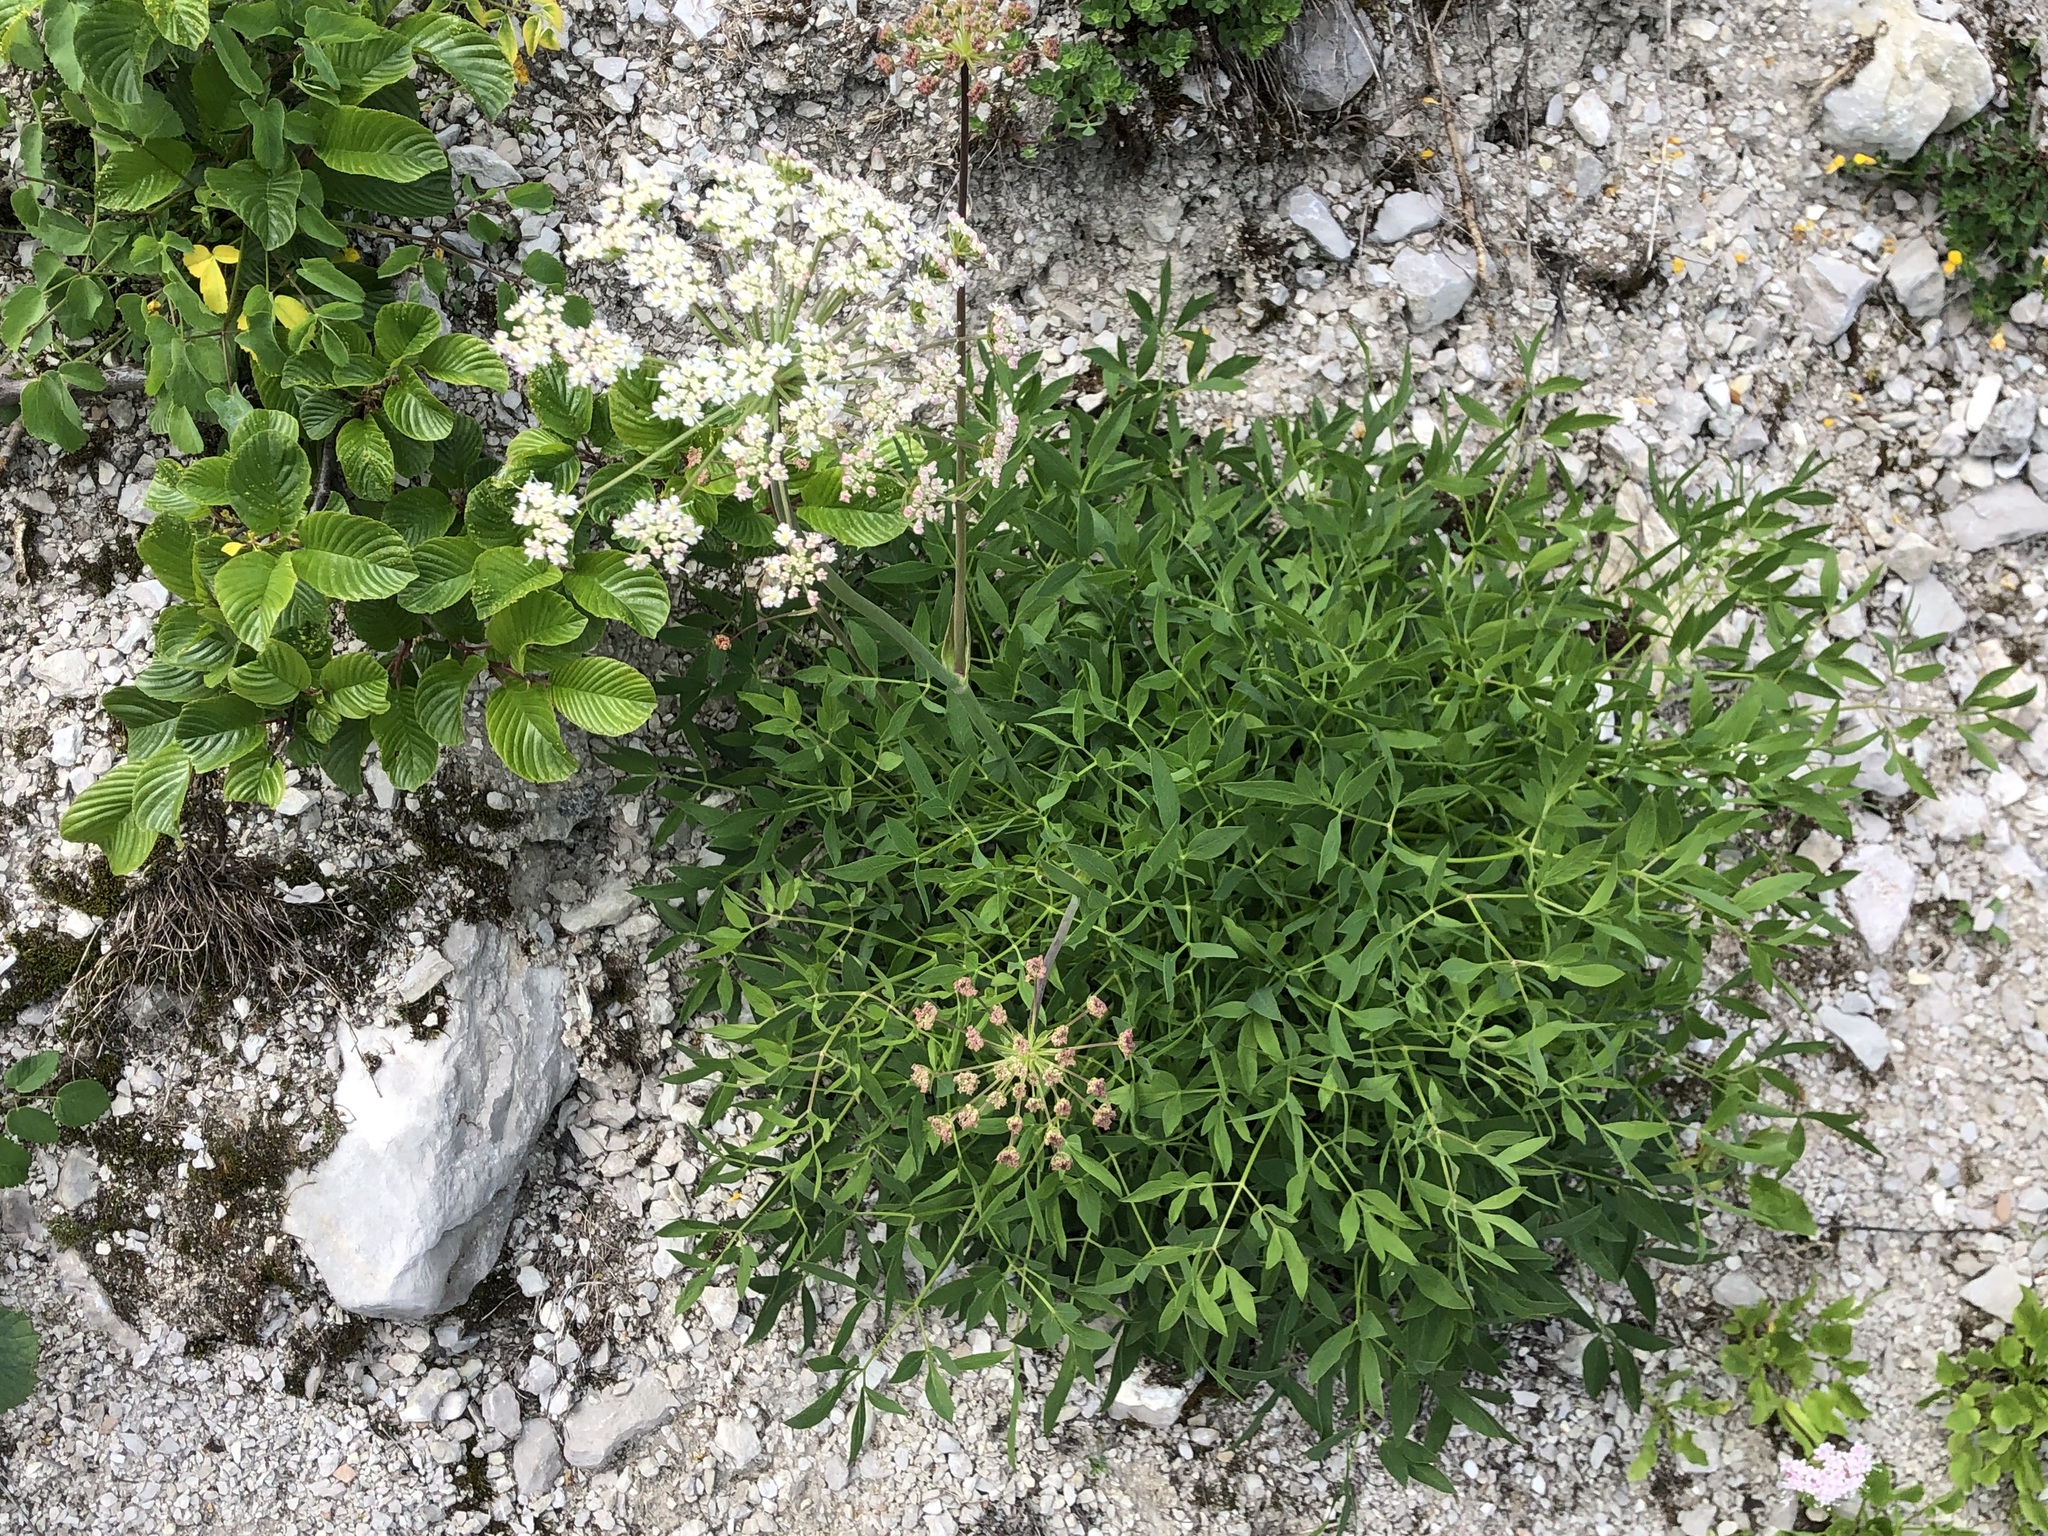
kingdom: Plantae
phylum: Tracheophyta
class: Magnoliopsida
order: Apiales
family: Apiaceae
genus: Siler
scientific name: Siler montanum
